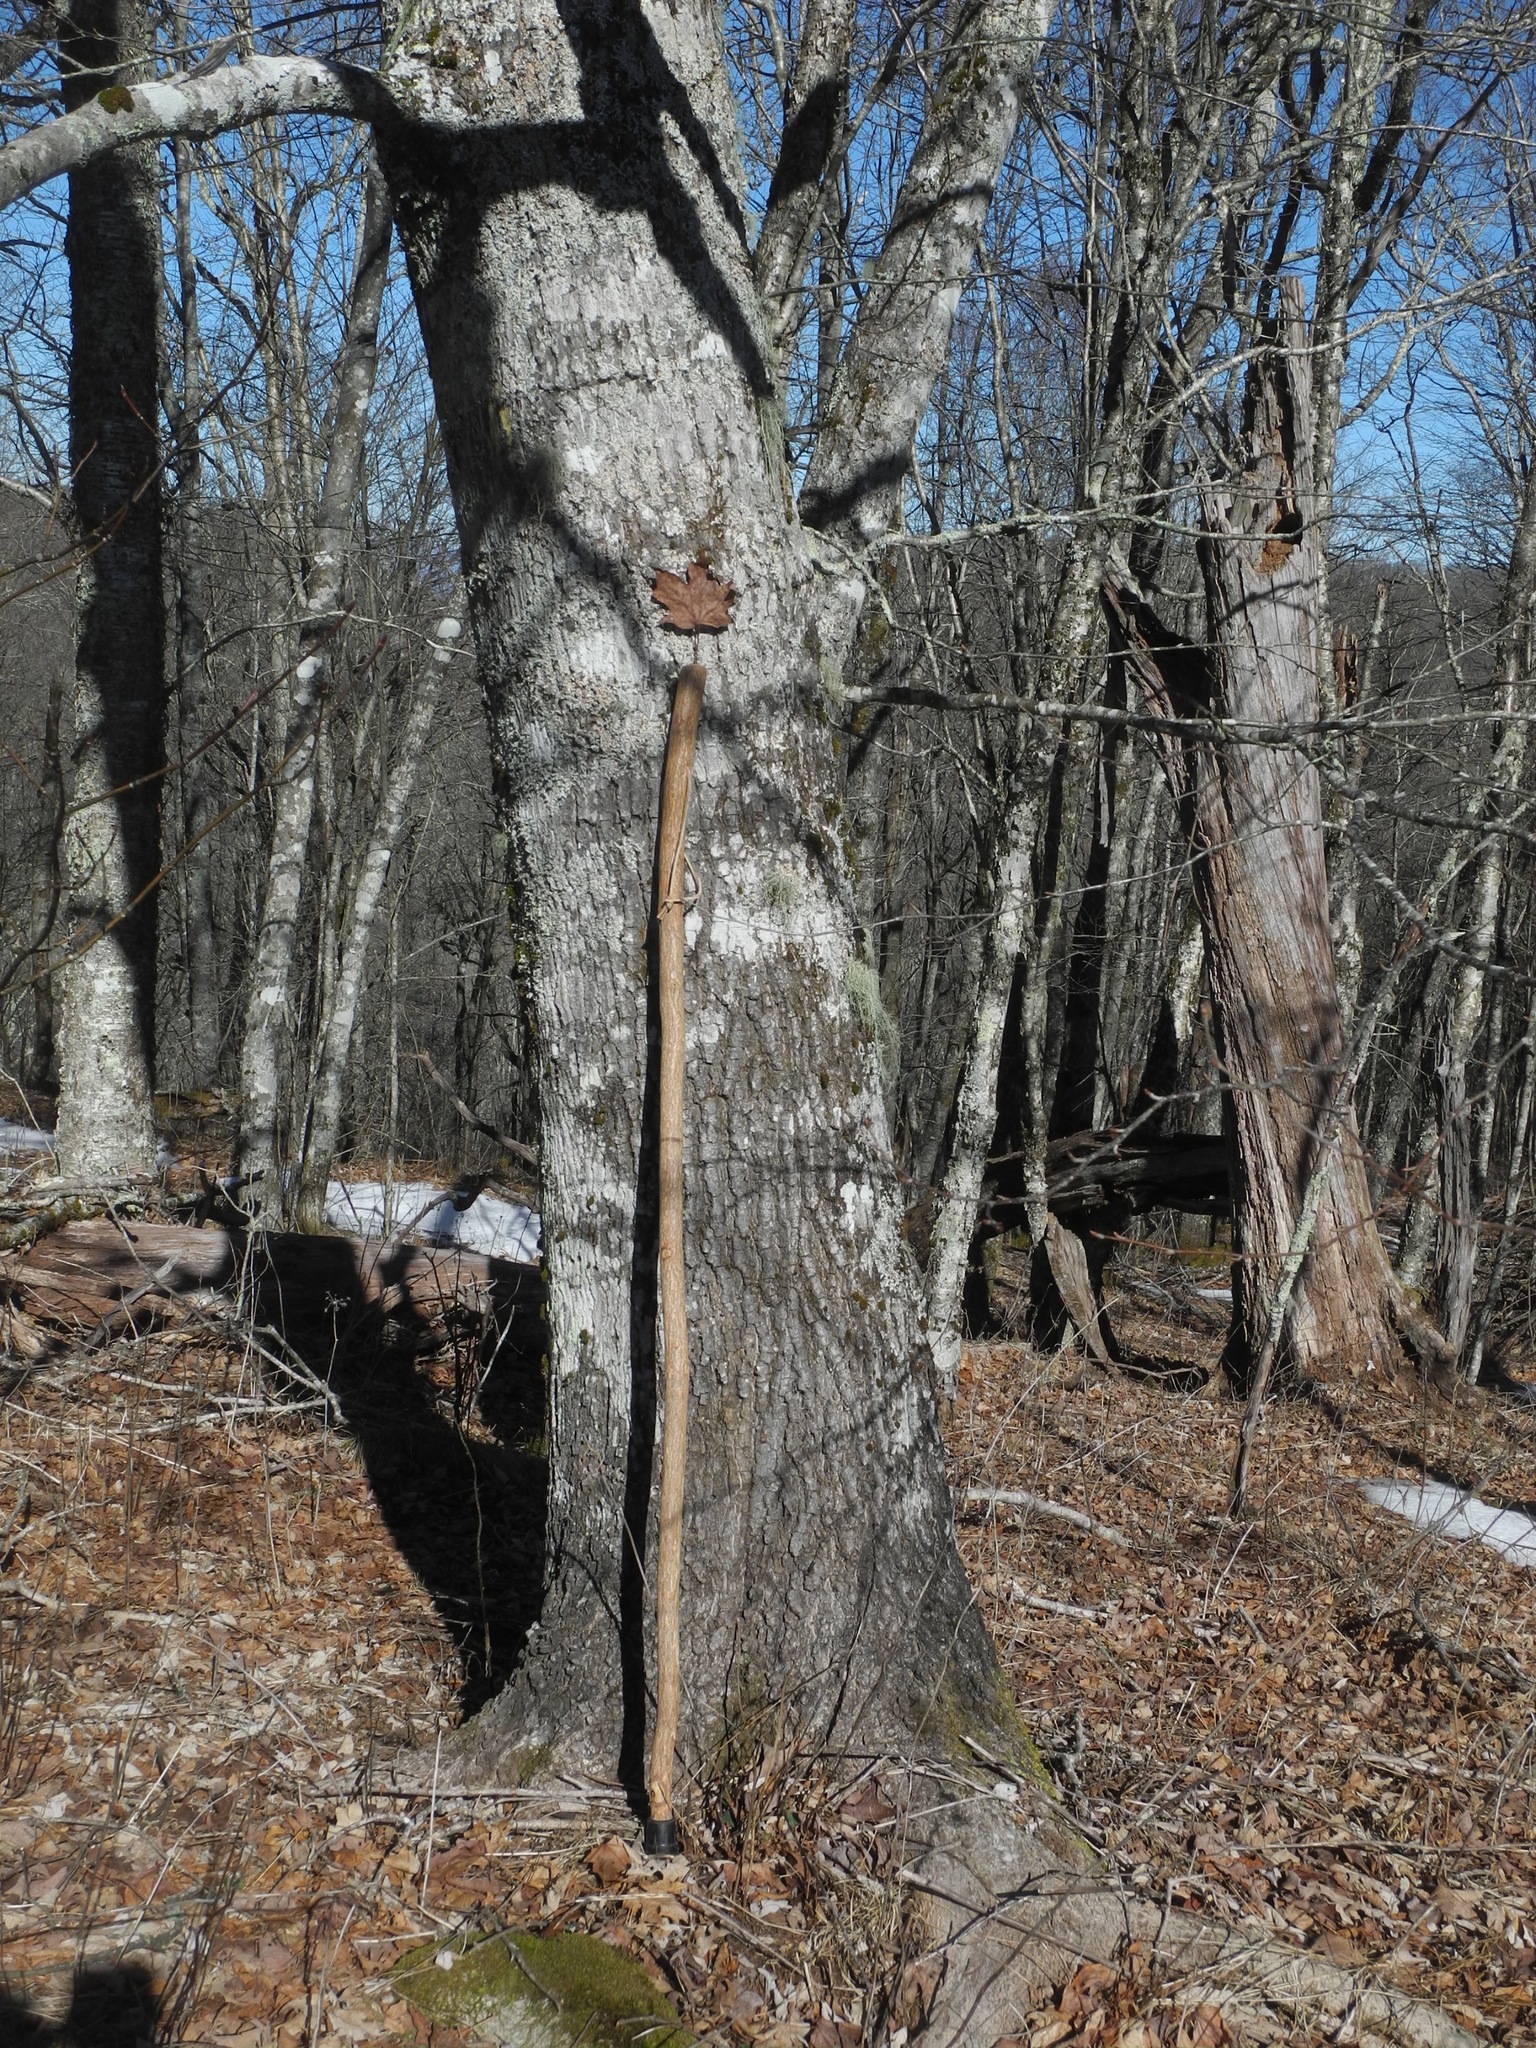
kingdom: Plantae
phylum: Tracheophyta
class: Magnoliopsida
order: Sapindales
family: Sapindaceae
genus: Acer
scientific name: Acer saccharum
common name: Sugar maple
